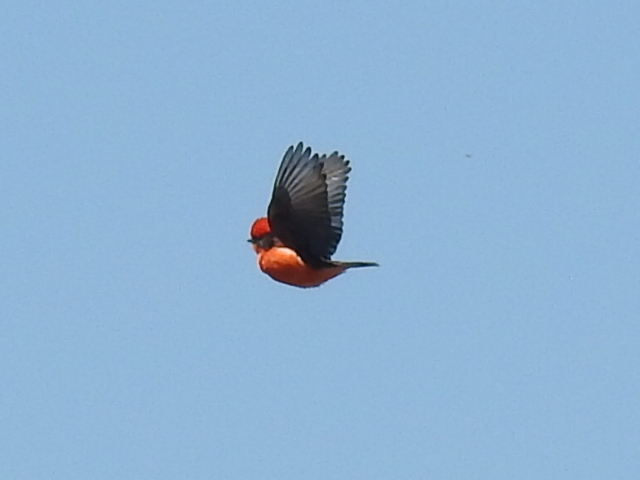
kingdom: Animalia
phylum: Chordata
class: Aves
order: Passeriformes
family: Tyrannidae
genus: Pyrocephalus
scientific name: Pyrocephalus rubinus
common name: Vermilion flycatcher
